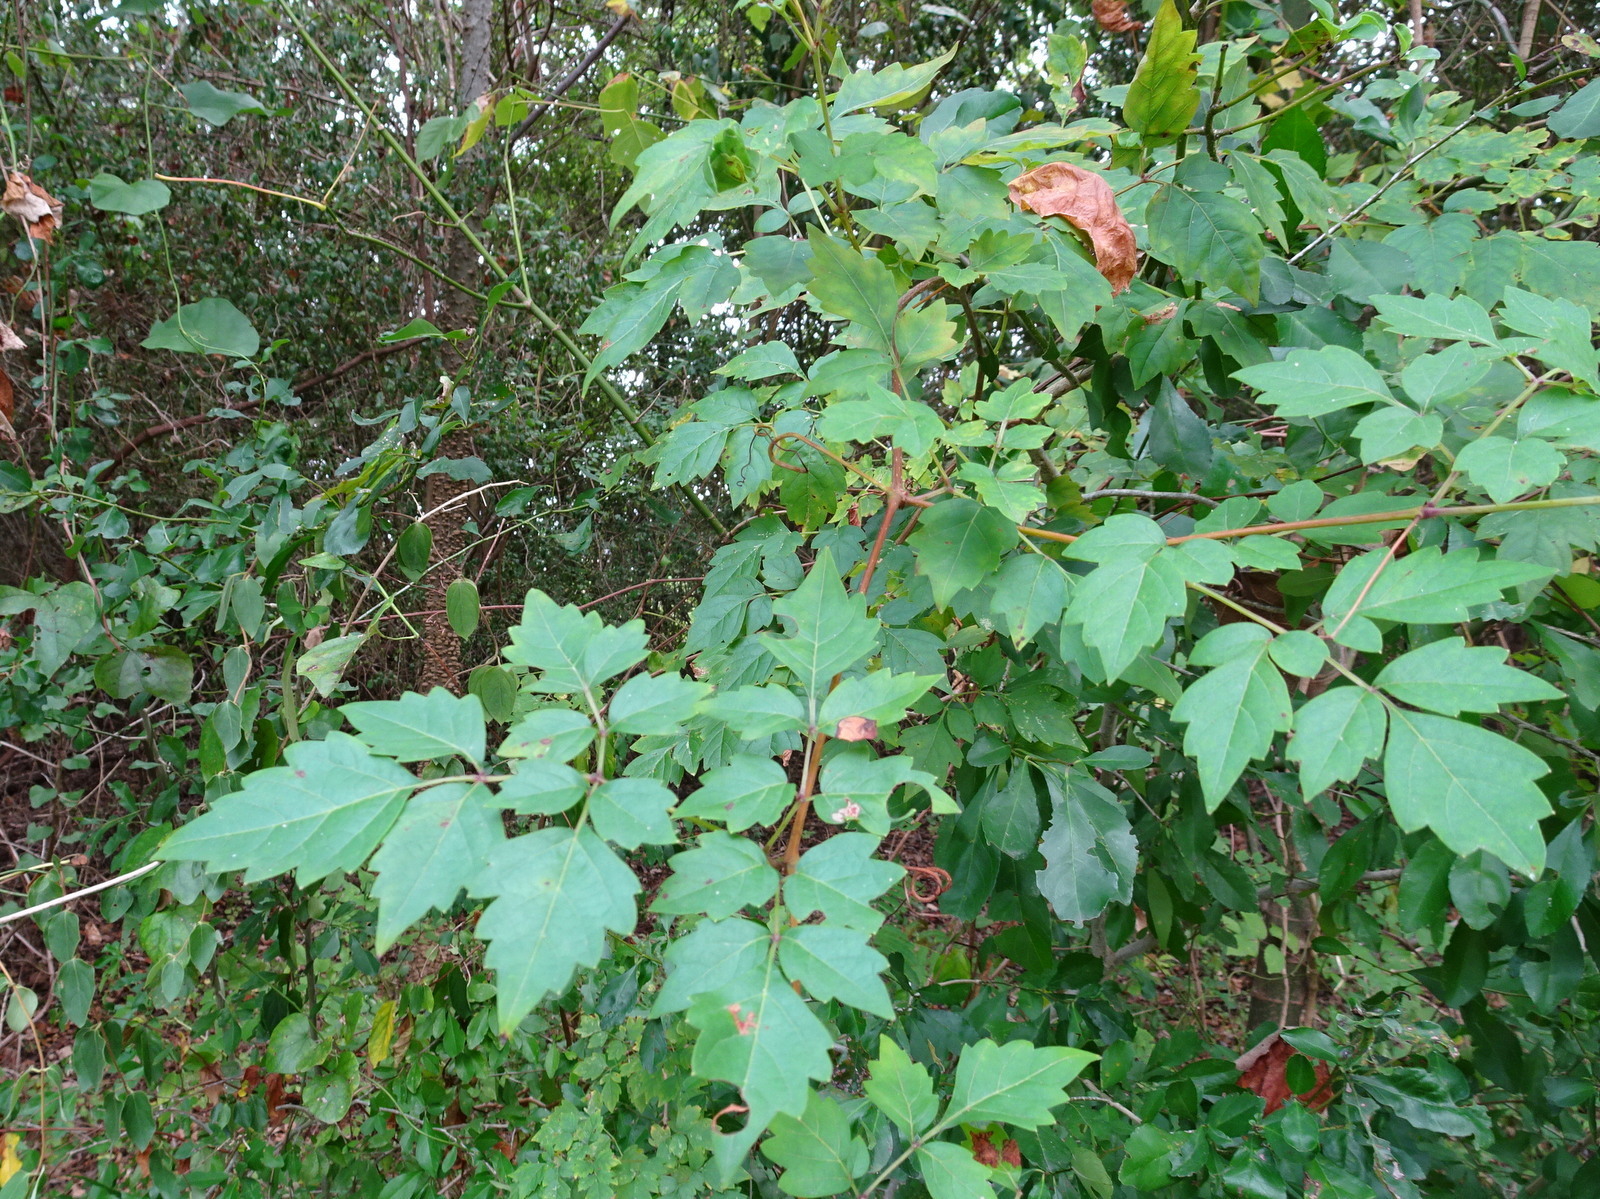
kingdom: Plantae
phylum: Tracheophyta
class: Magnoliopsida
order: Vitales
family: Vitaceae
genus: Nekemias
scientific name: Nekemias arborea
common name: Peppervine
